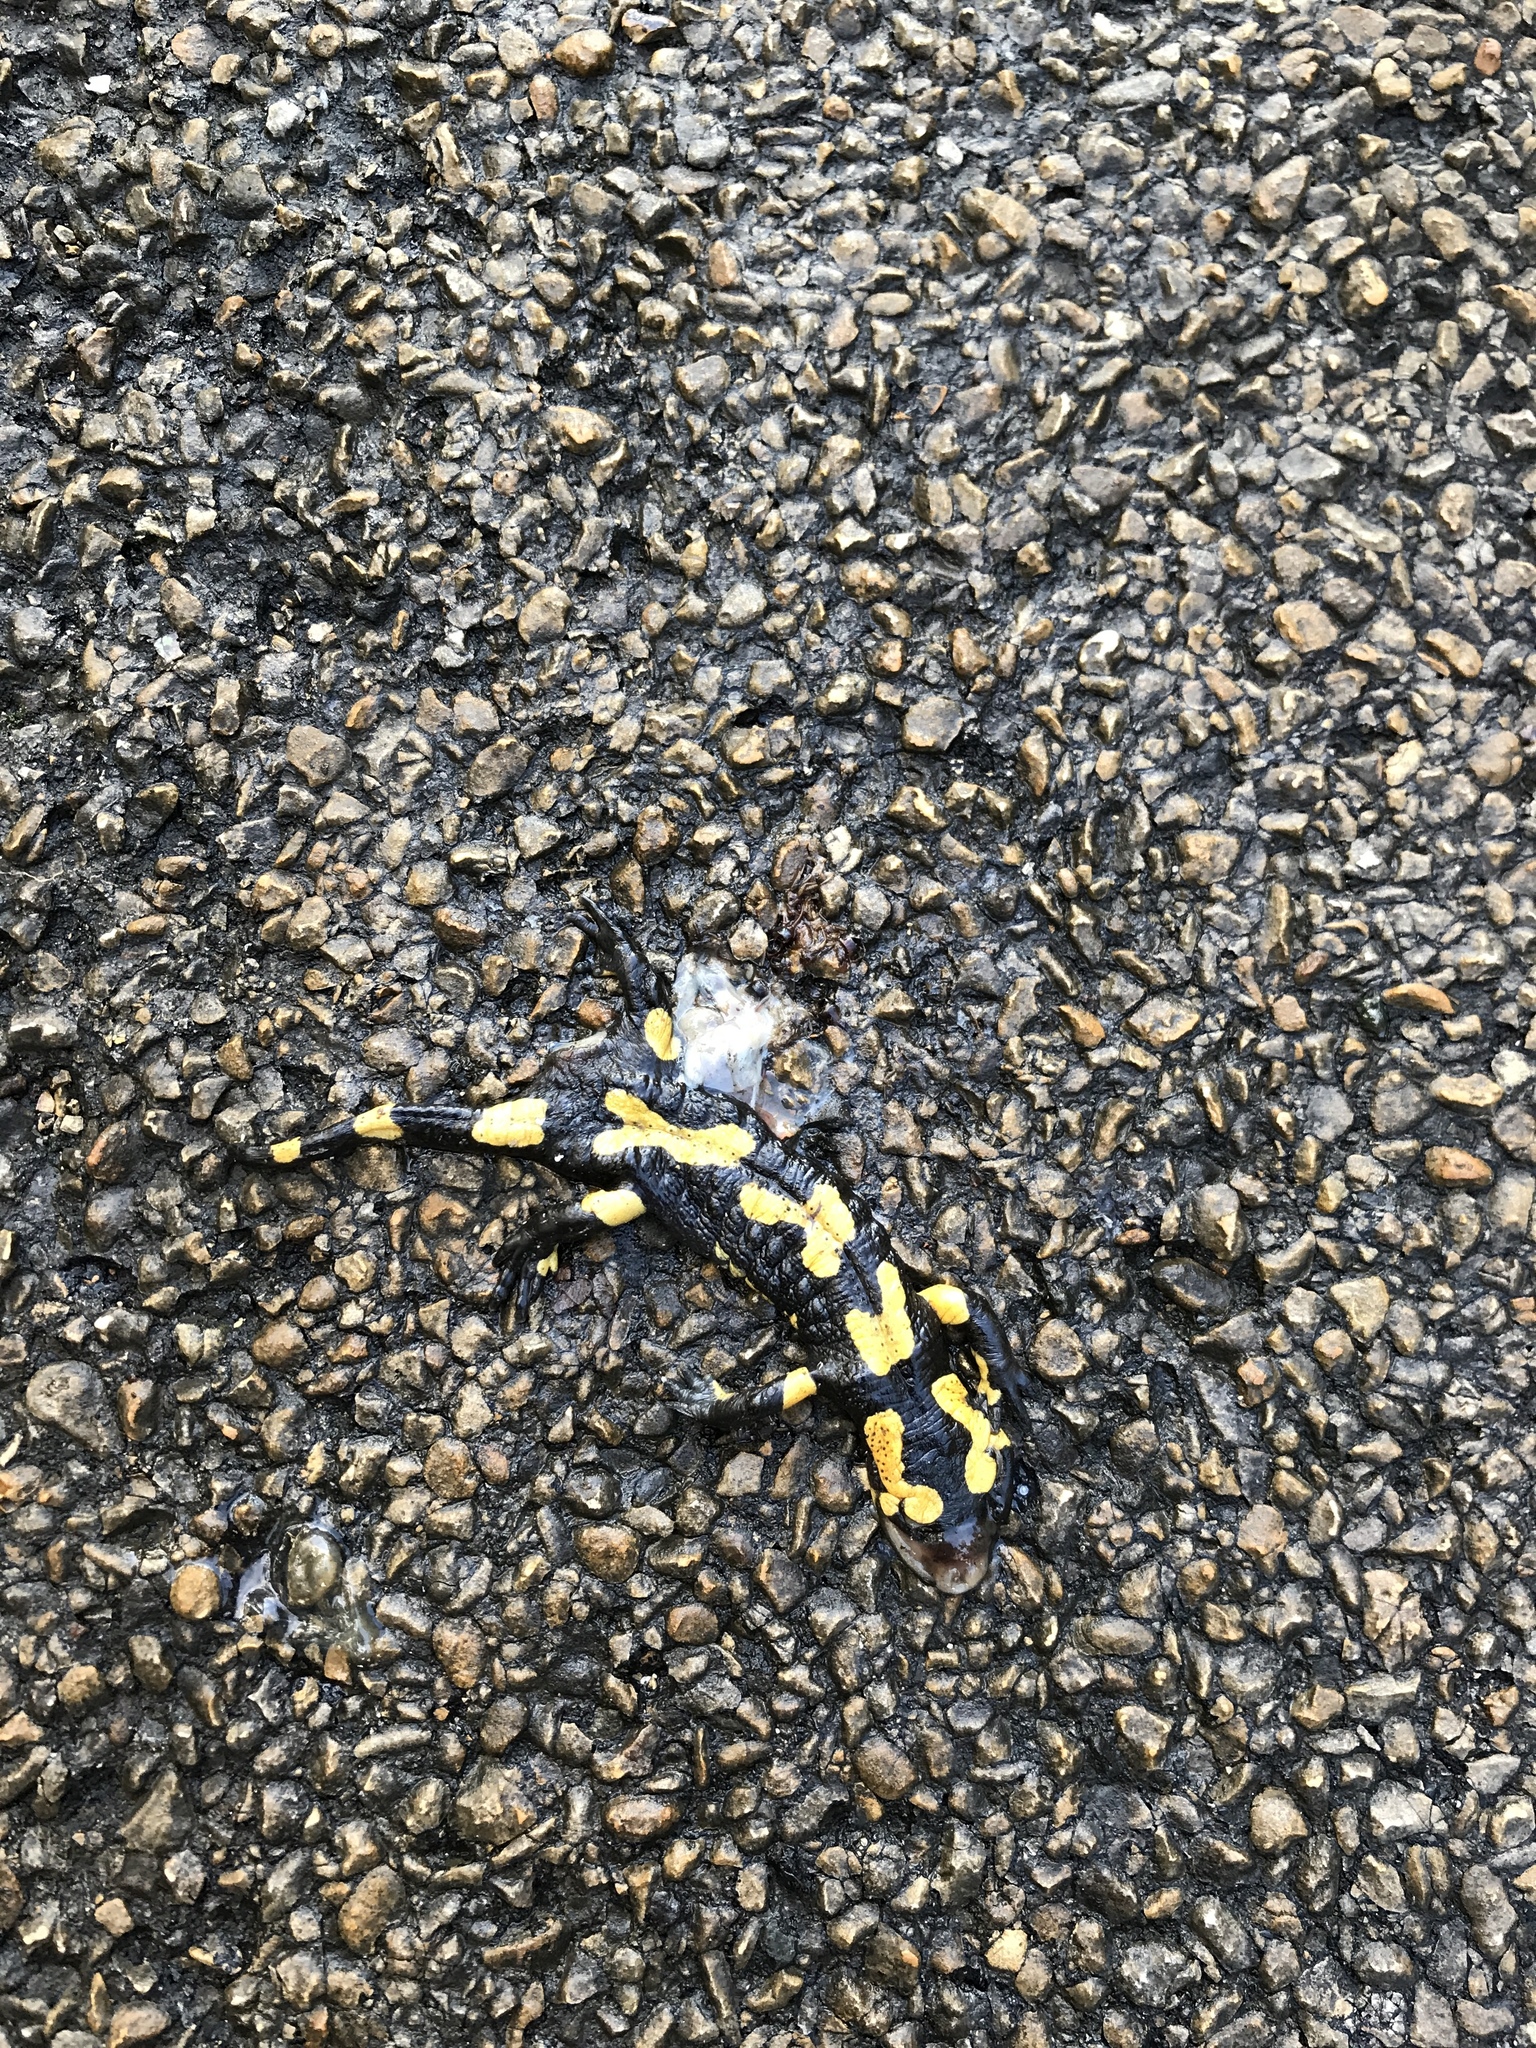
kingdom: Animalia
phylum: Chordata
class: Amphibia
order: Caudata
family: Salamandridae
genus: Salamandra
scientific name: Salamandra salamandra
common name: Fire salamander
